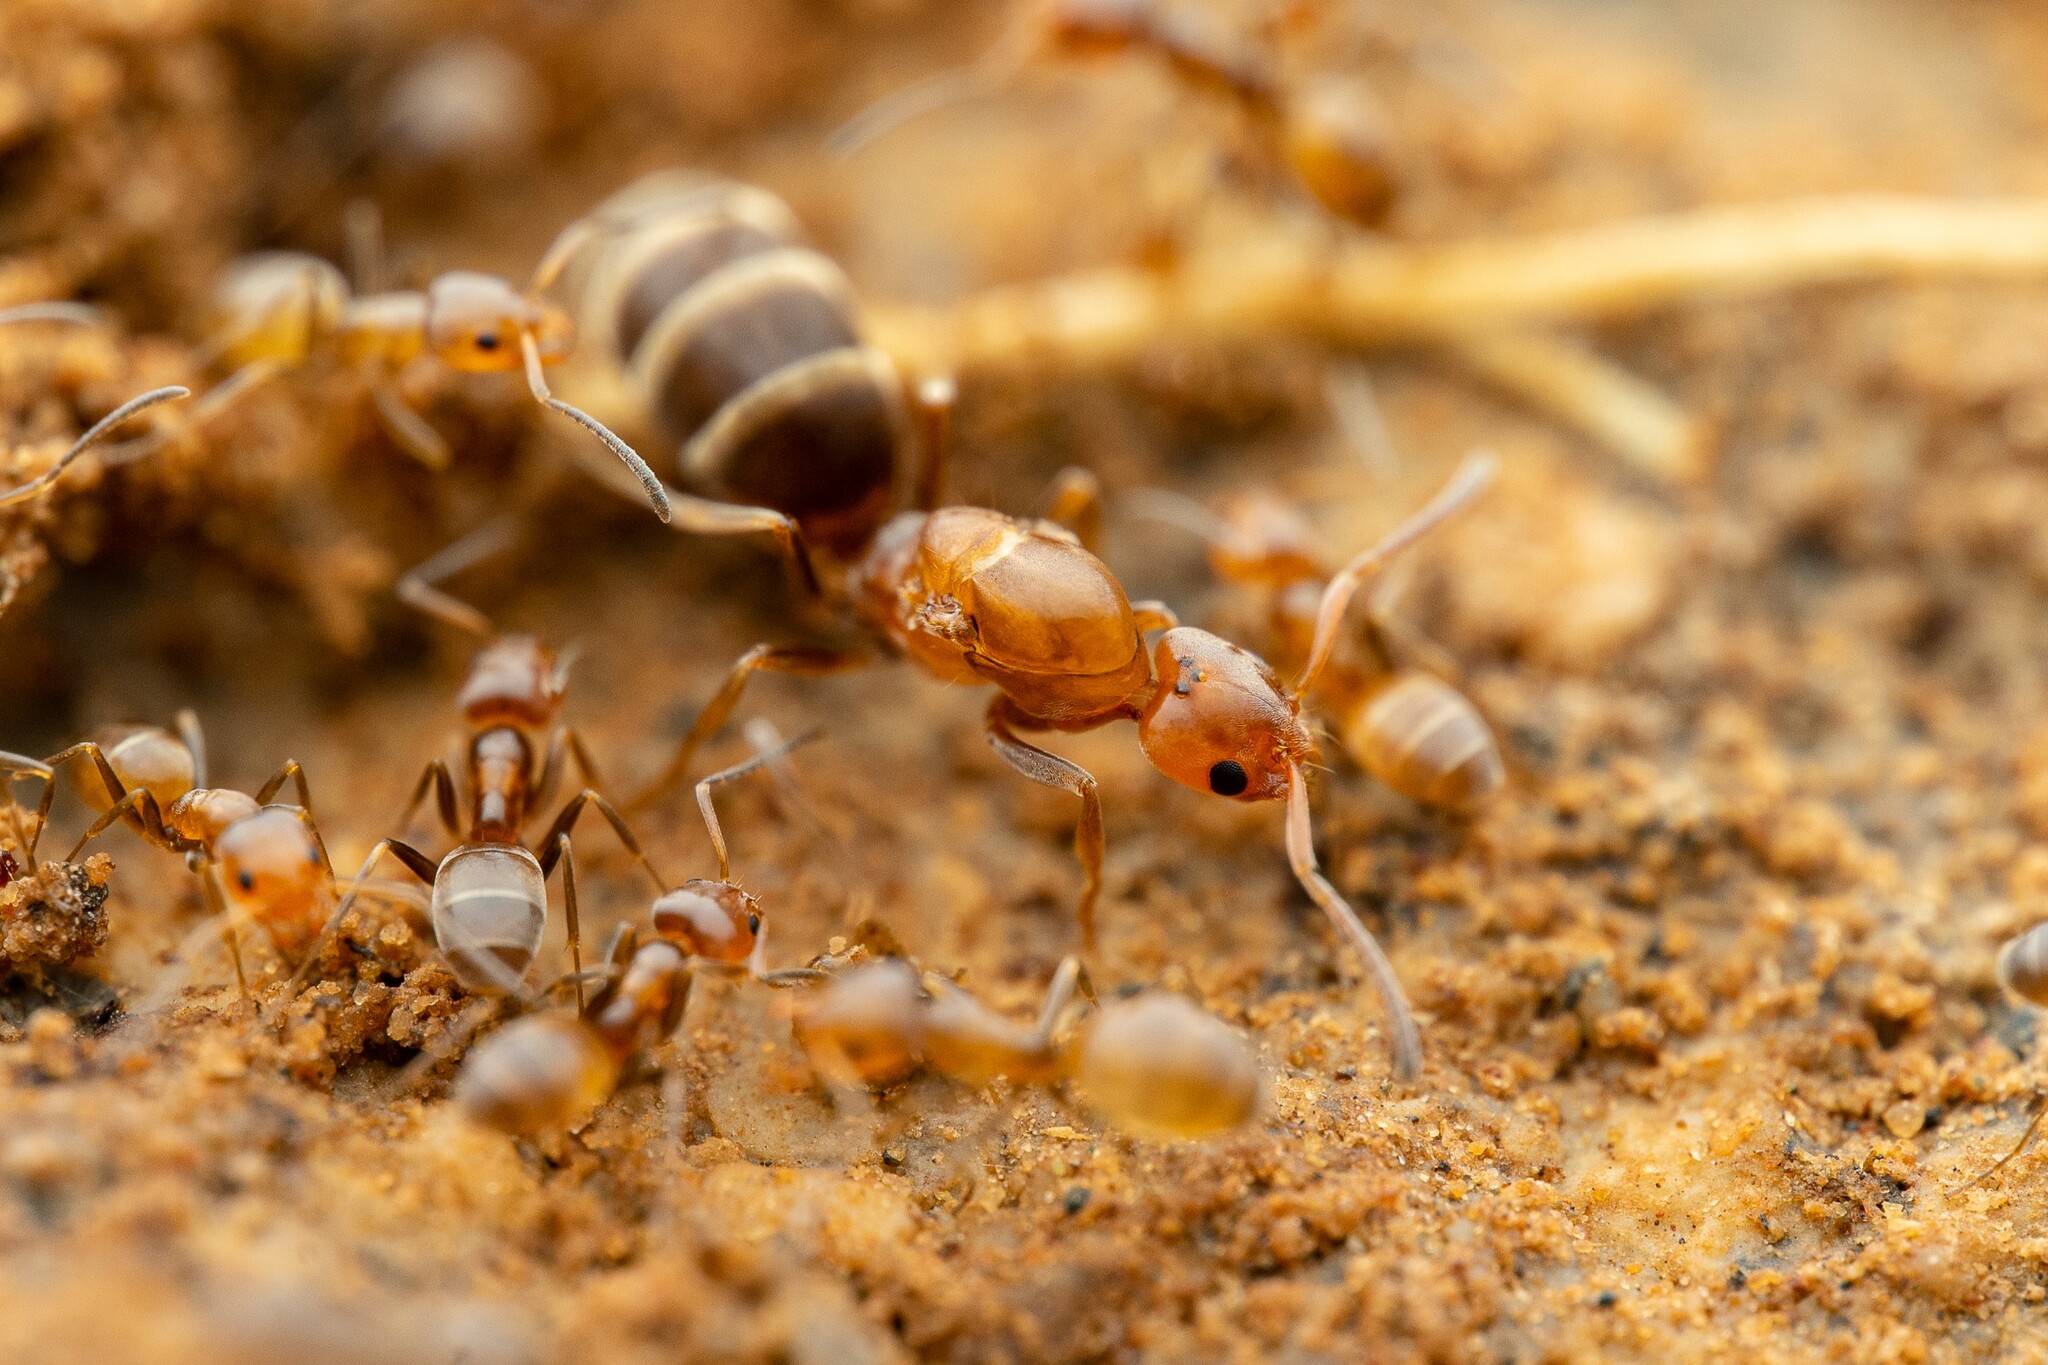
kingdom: Animalia
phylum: Arthropoda
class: Insecta
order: Hymenoptera
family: Formicidae
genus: Forelius
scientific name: Forelius pruinosus
